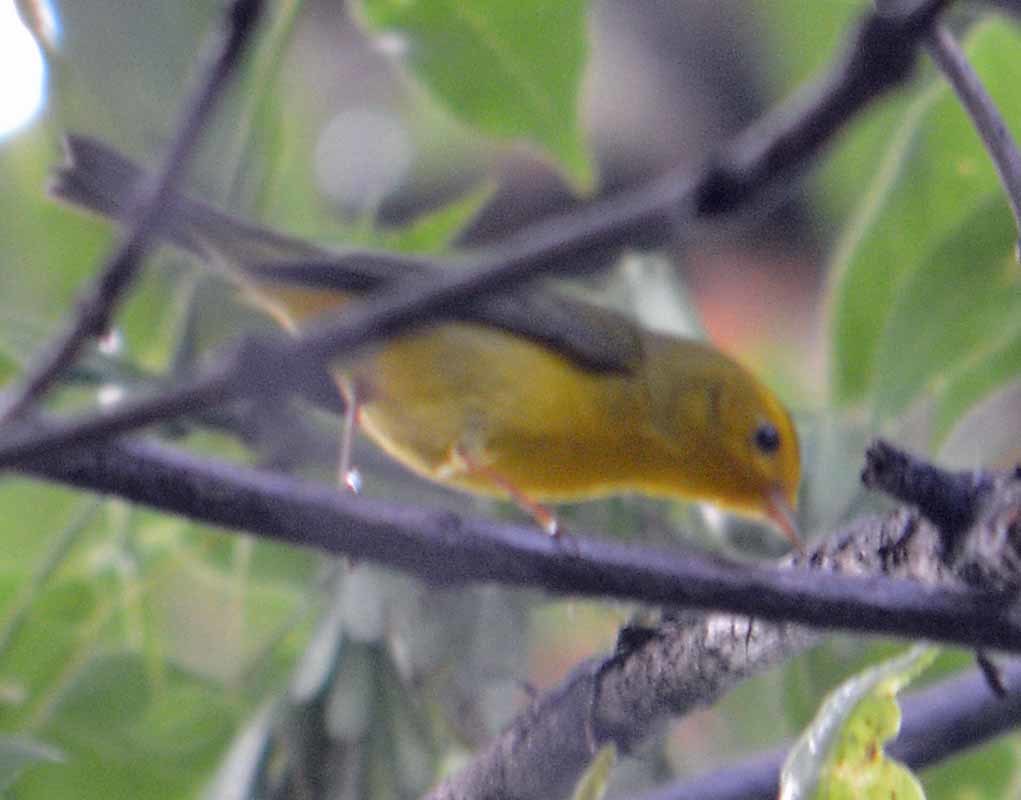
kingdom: Animalia
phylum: Chordata
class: Aves
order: Passeriformes
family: Parulidae
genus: Cardellina
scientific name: Cardellina pusilla
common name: Wilson's warbler
